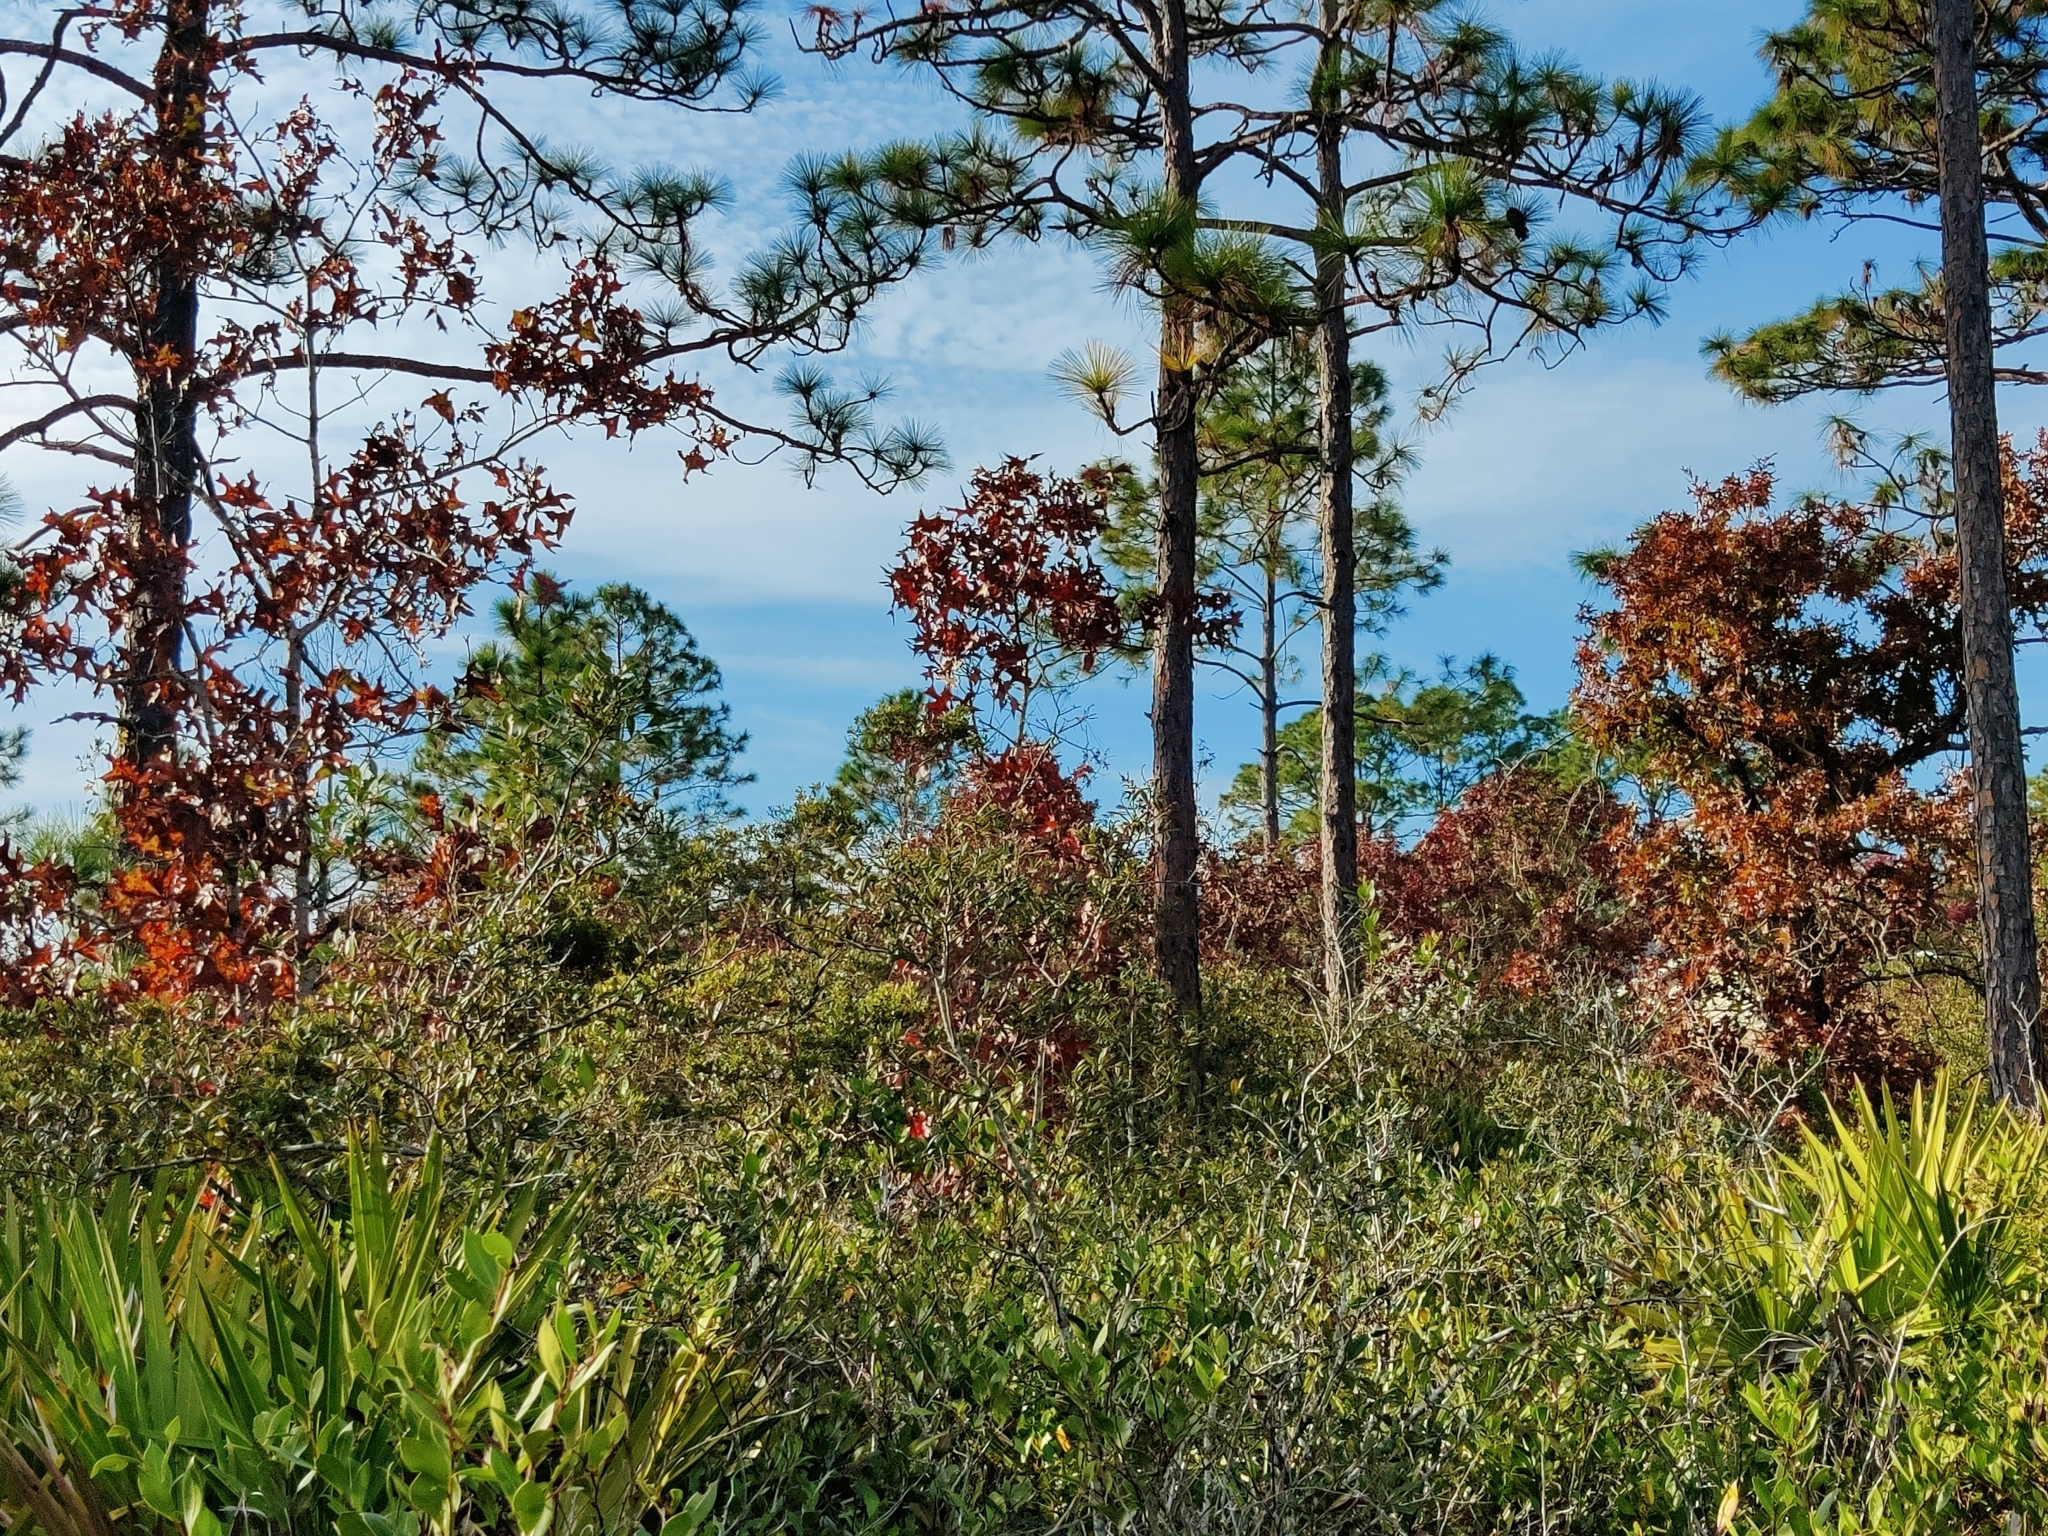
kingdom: Plantae
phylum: Tracheophyta
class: Magnoliopsida
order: Fagales
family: Fagaceae
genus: Quercus
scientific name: Quercus laevis
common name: Turkey oak
